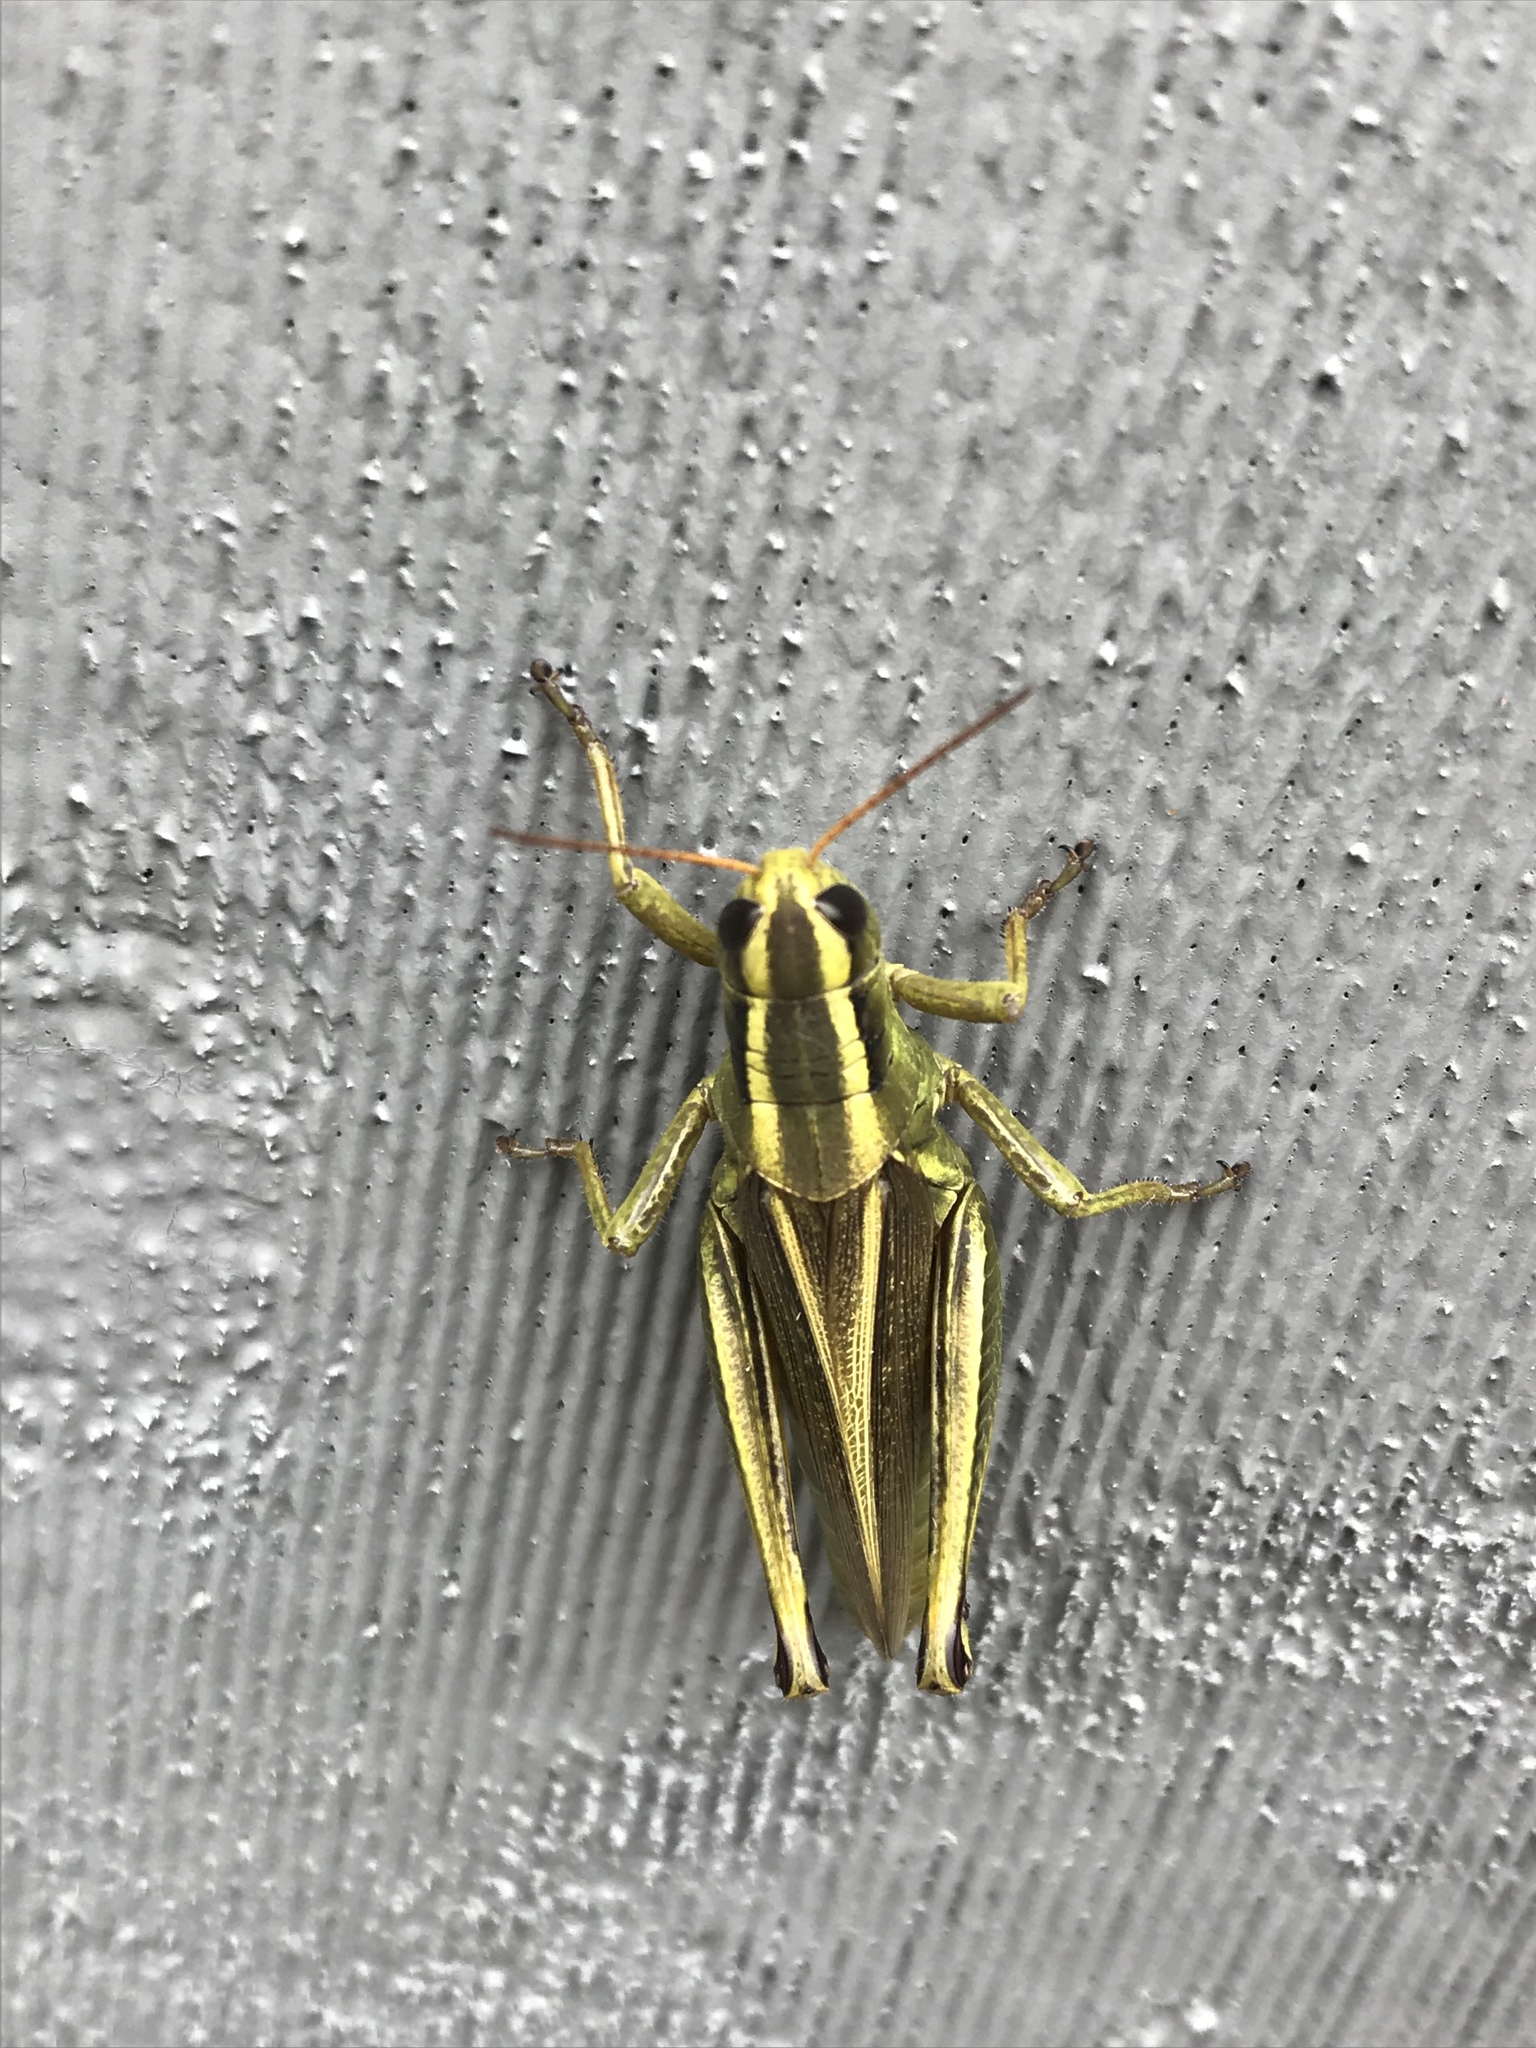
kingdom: Animalia
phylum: Arthropoda
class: Insecta
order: Orthoptera
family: Acrididae
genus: Melanoplus
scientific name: Melanoplus bivittatus
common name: Two-striped grasshopper
